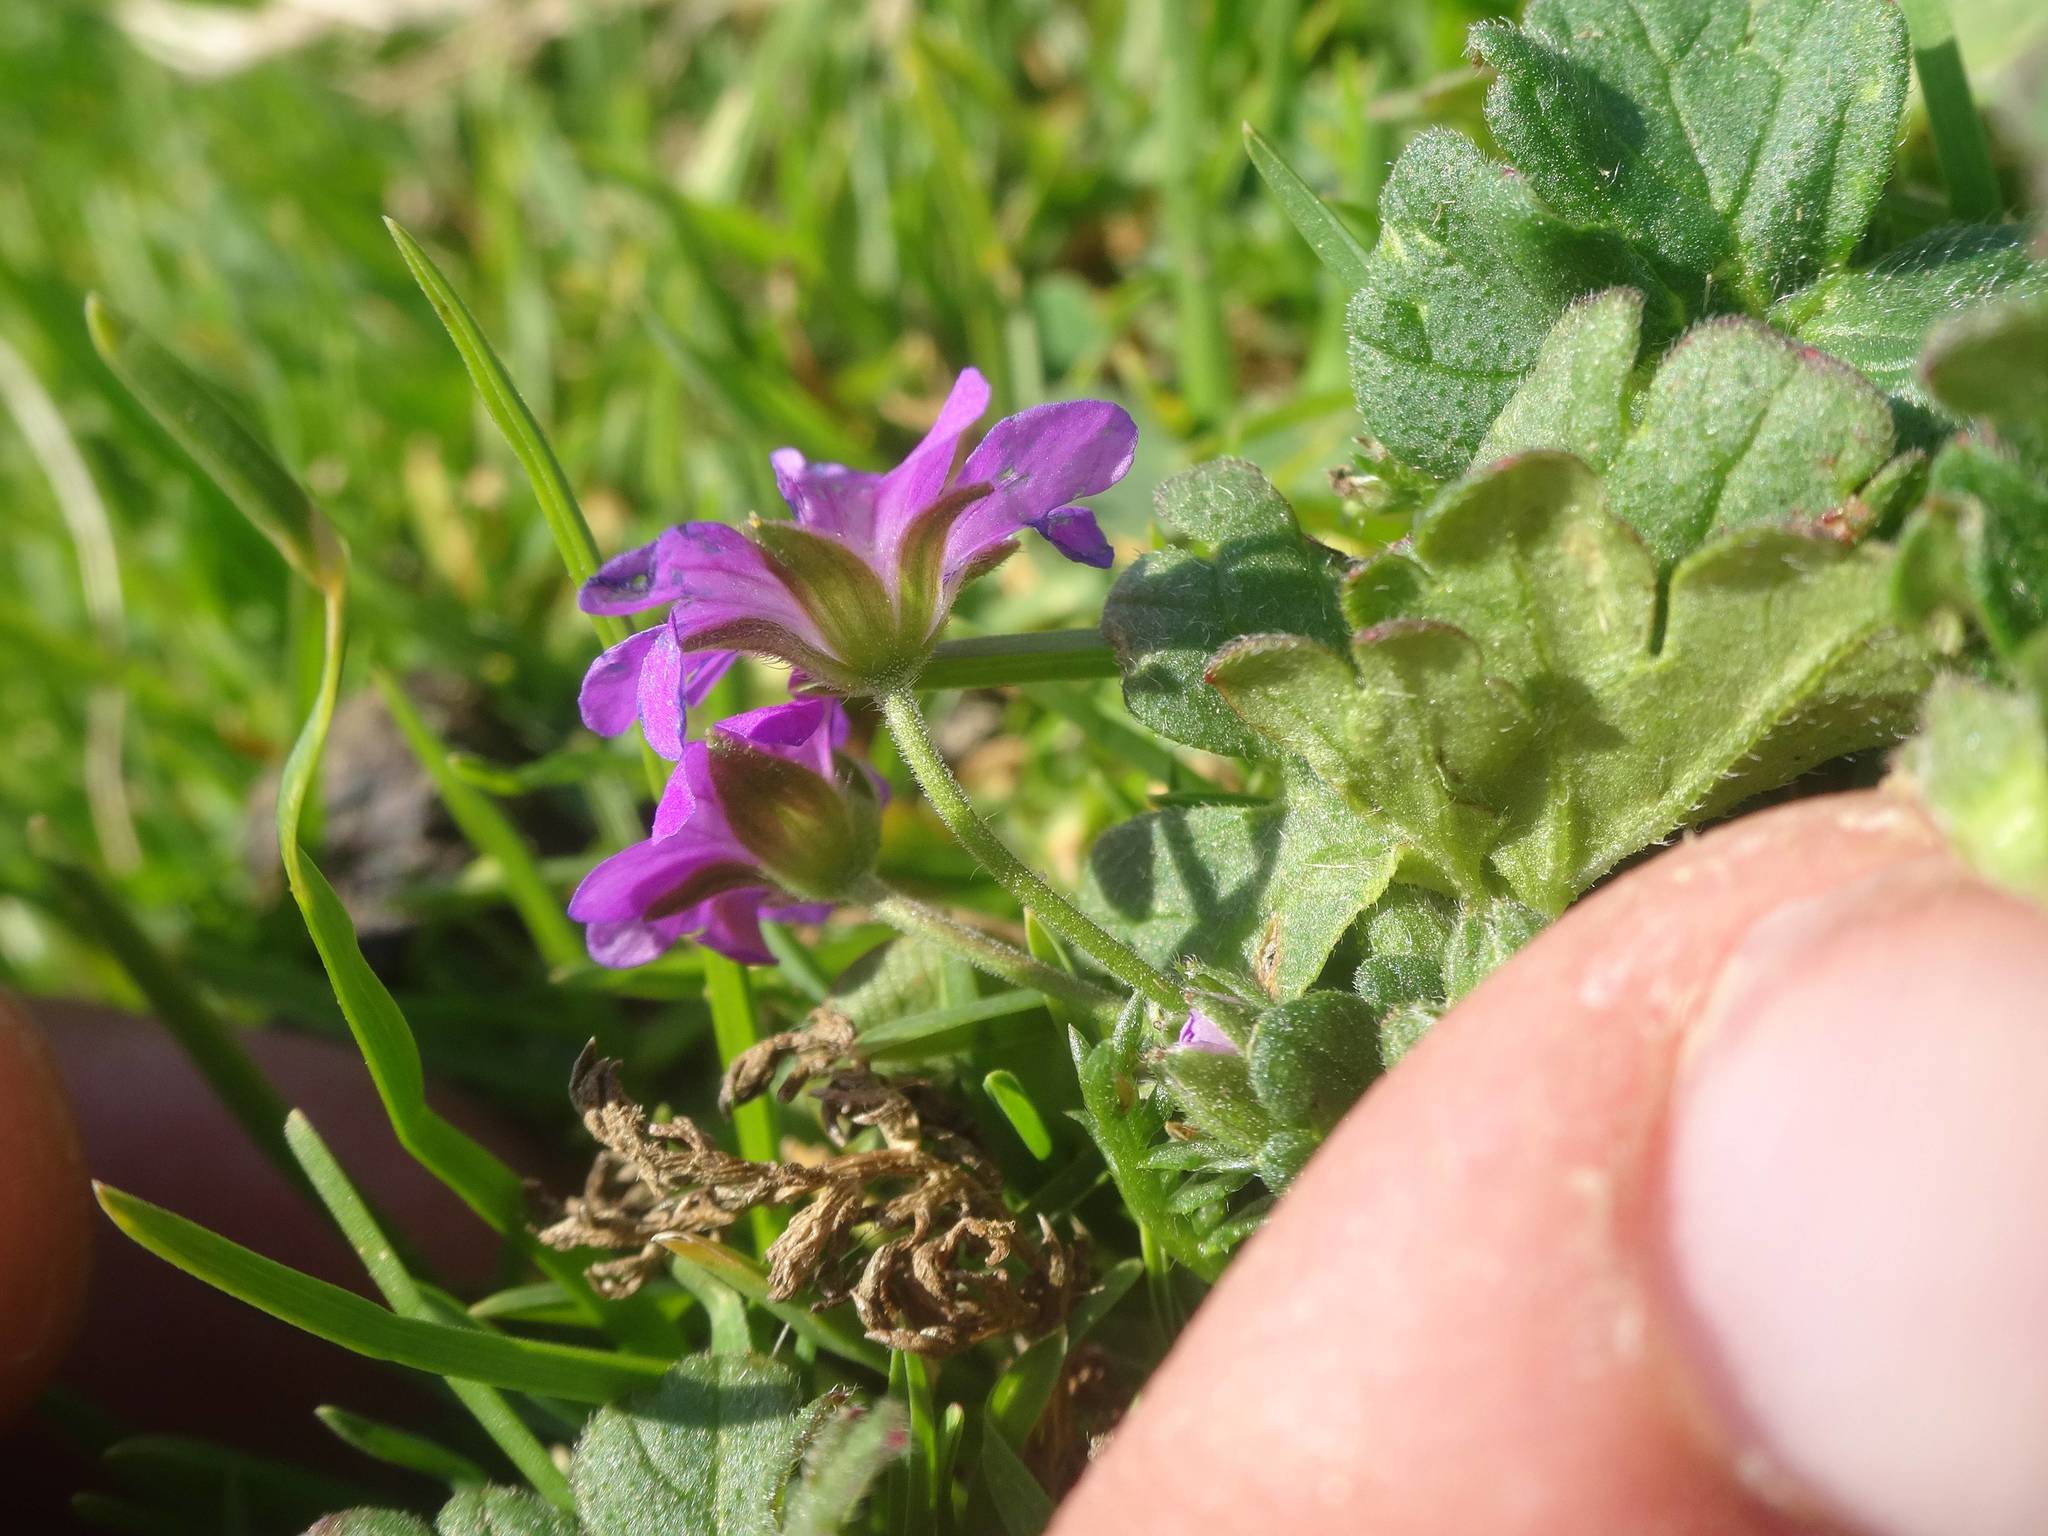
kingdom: Plantae
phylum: Tracheophyta
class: Magnoliopsida
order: Geraniales
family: Geraniaceae
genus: Geranium
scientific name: Geranium pyrenaicum
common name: Hedgerow crane's-bill
